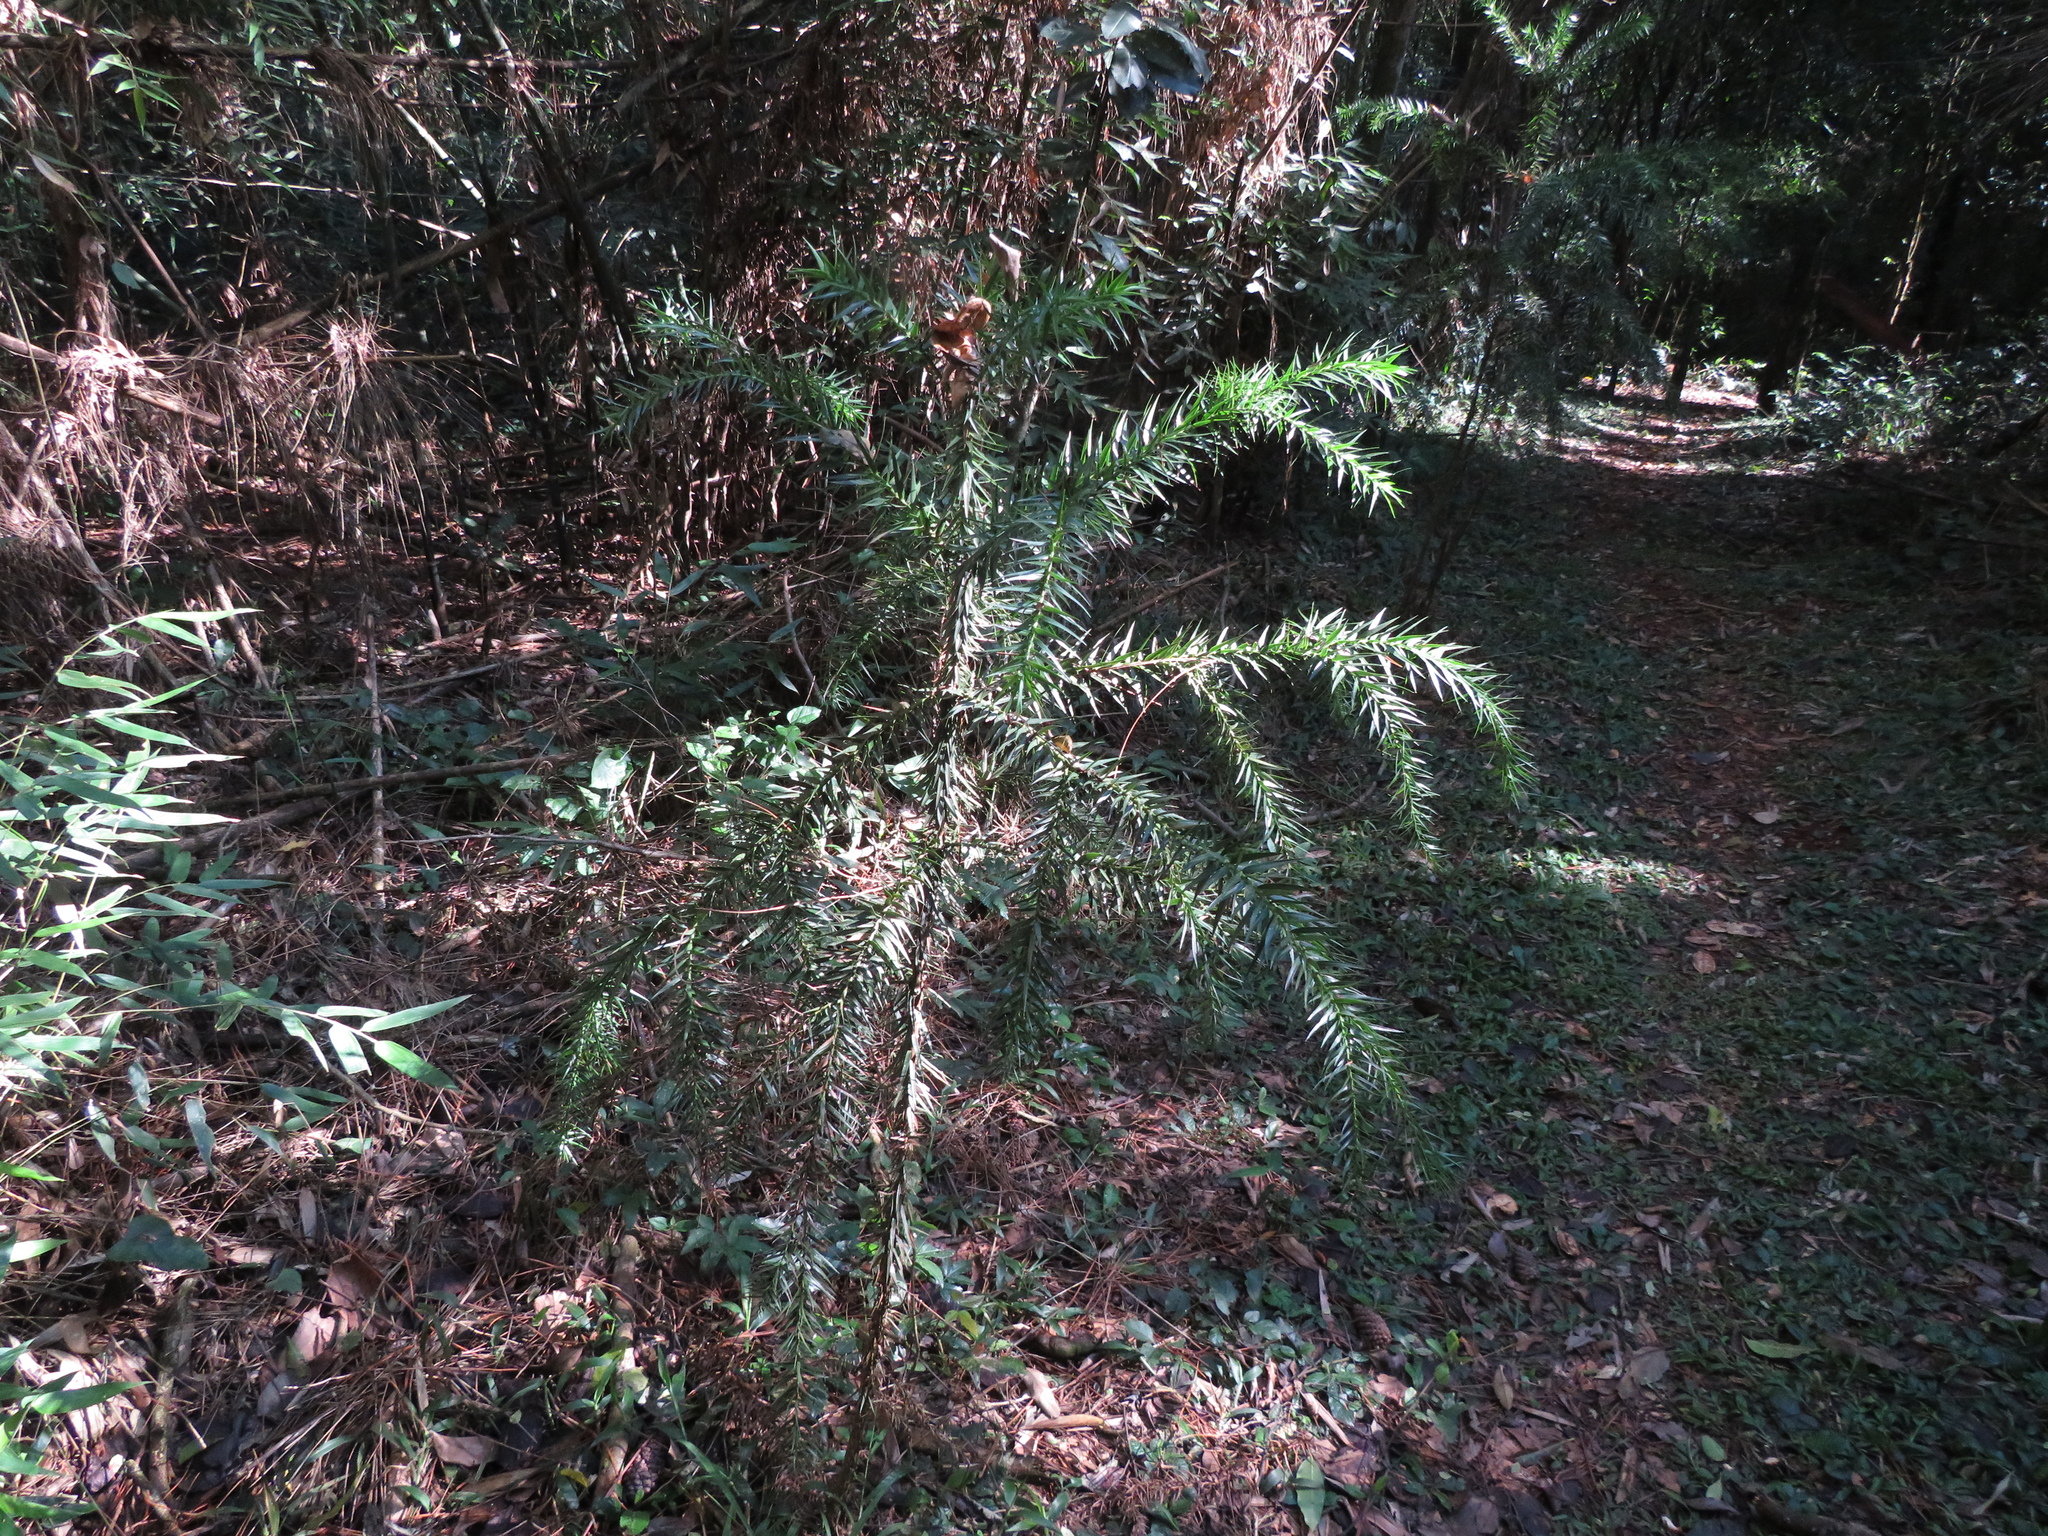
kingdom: Plantae
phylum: Tracheophyta
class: Pinopsida
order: Pinales
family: Araucariaceae
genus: Araucaria
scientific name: Araucaria angustifolia
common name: Candelabra tree
